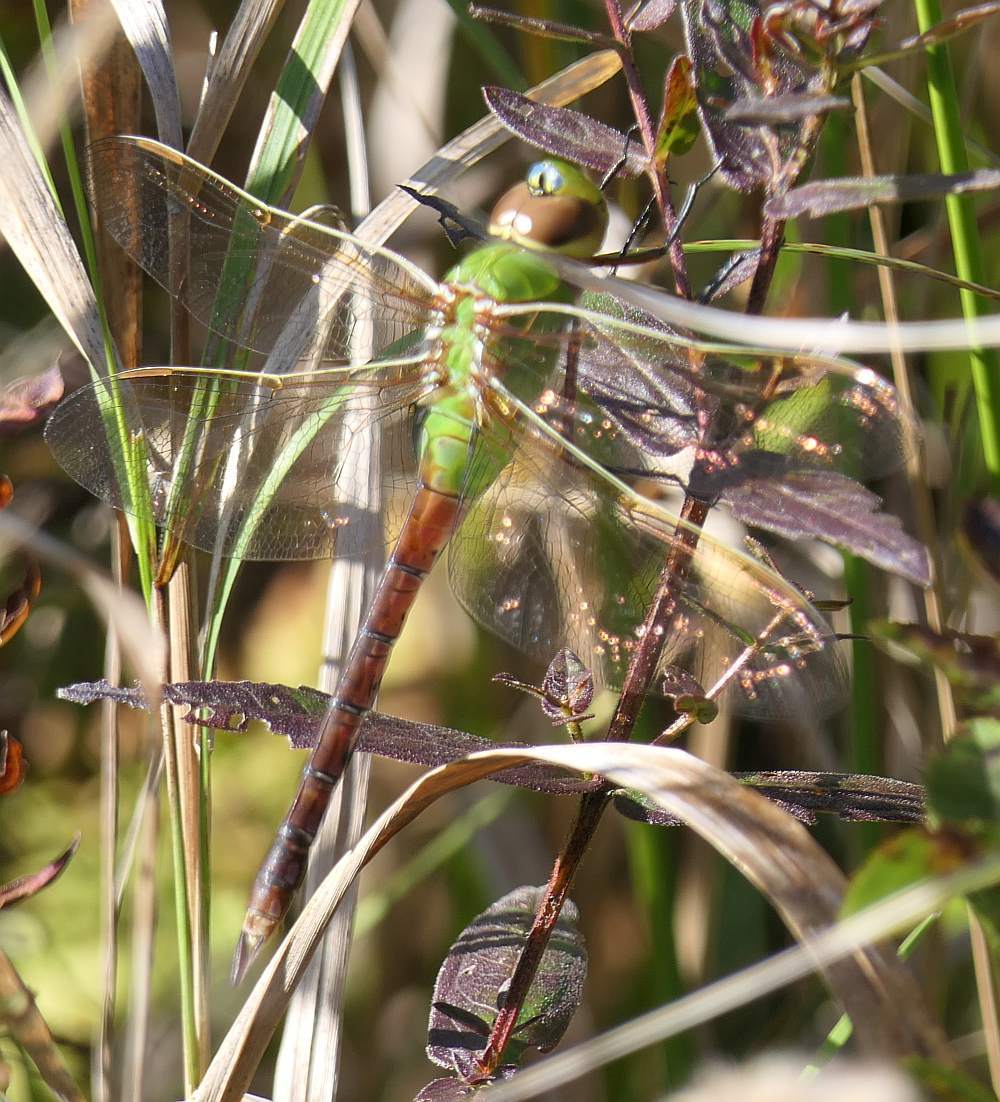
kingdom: Animalia
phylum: Arthropoda
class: Insecta
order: Odonata
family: Aeshnidae
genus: Anax
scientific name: Anax junius
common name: Common green darner
